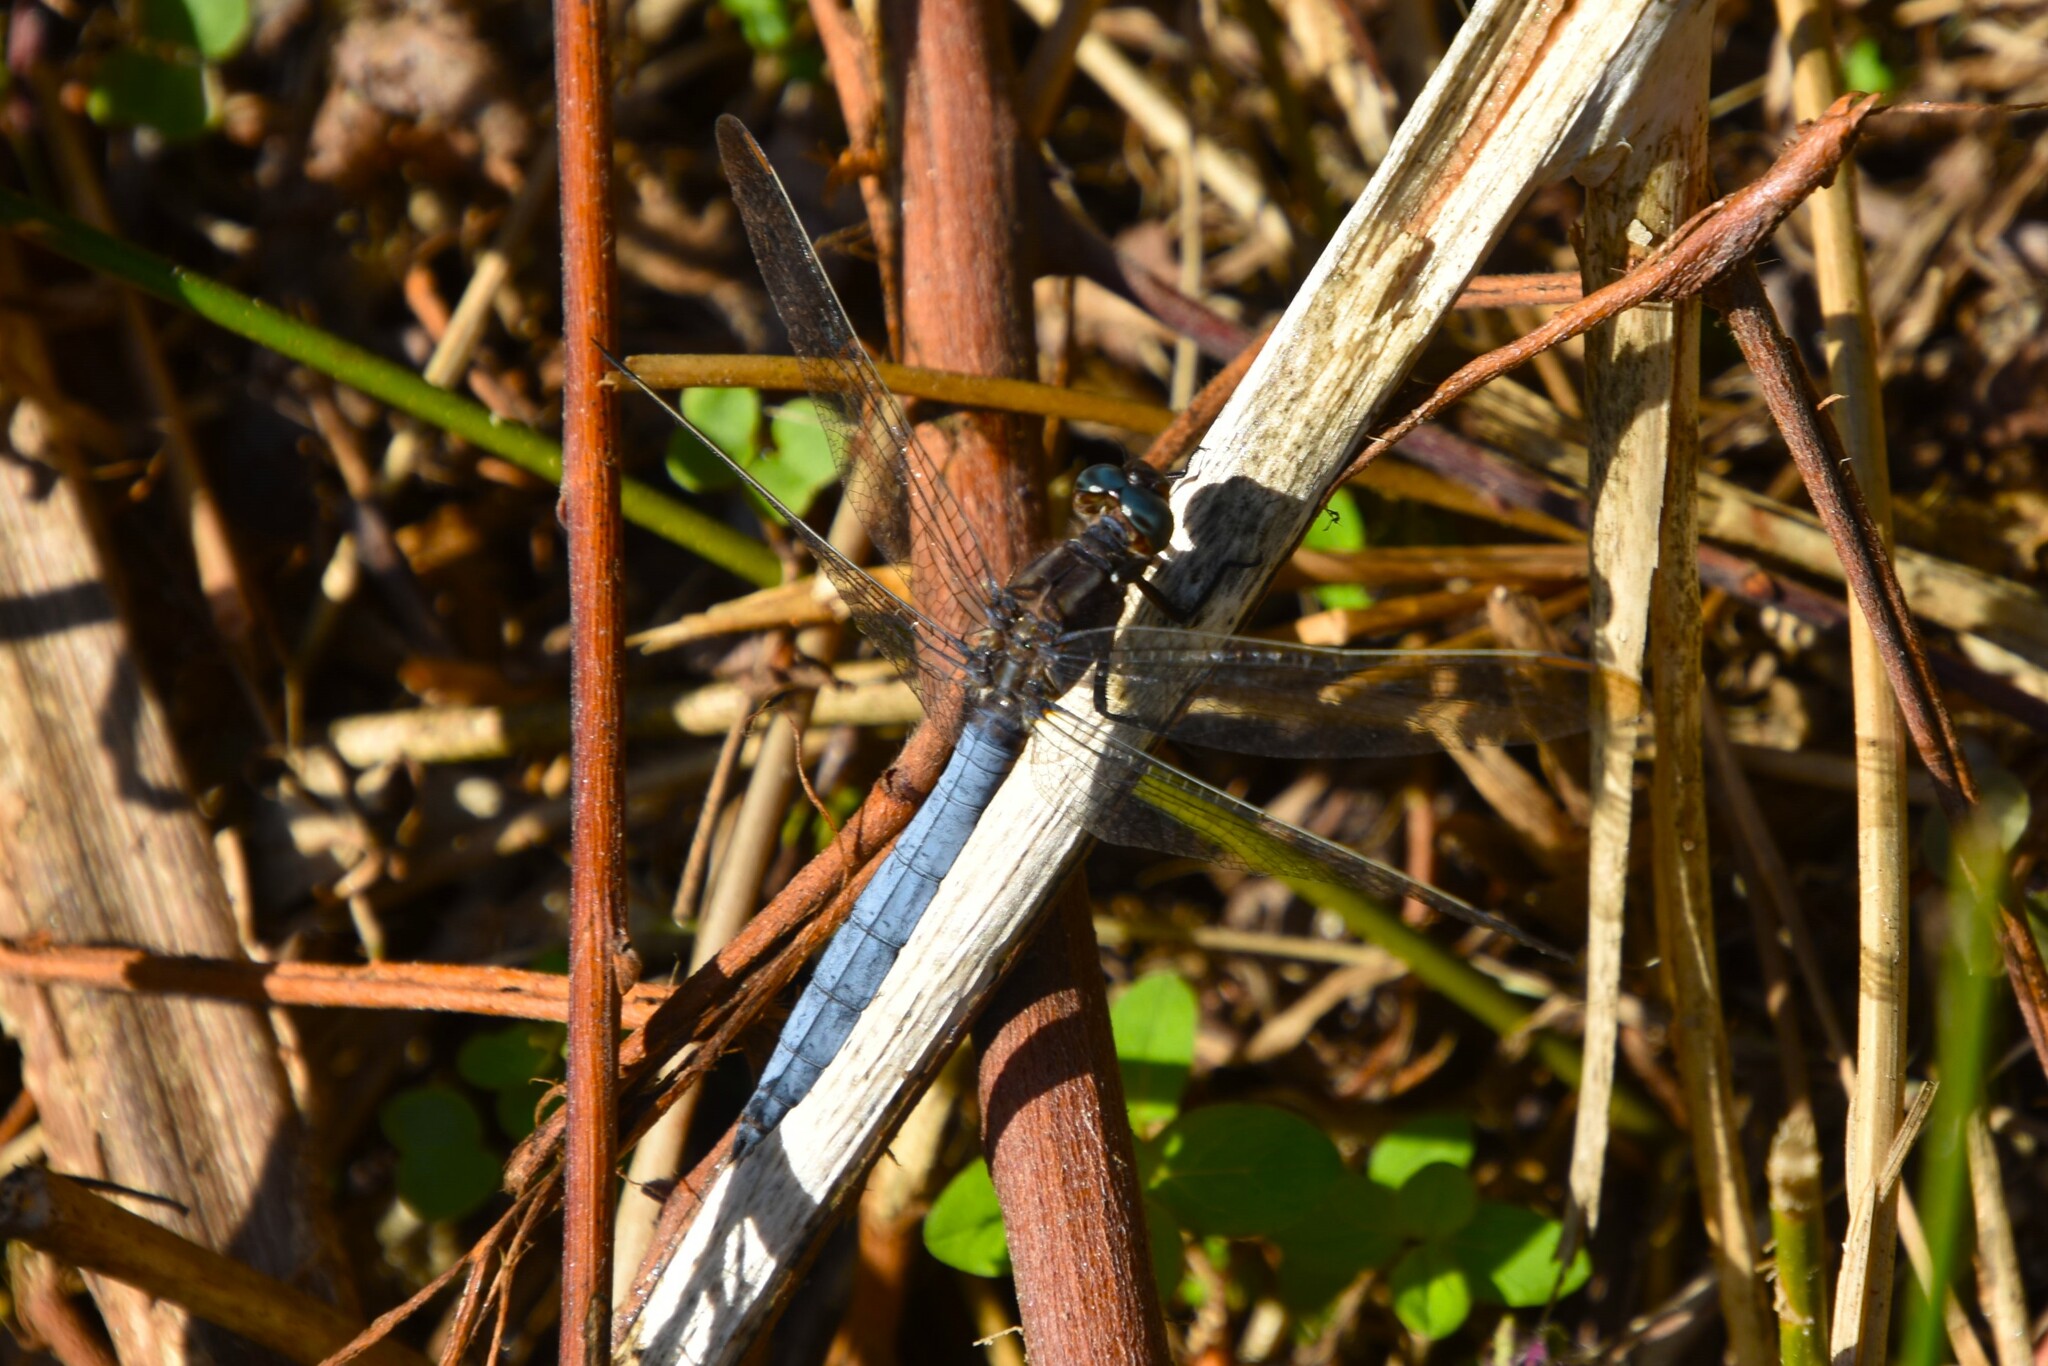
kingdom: Animalia
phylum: Arthropoda
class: Insecta
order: Odonata
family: Libellulidae
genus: Orthetrum
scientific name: Orthetrum coerulescens
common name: Keeled skimmer
